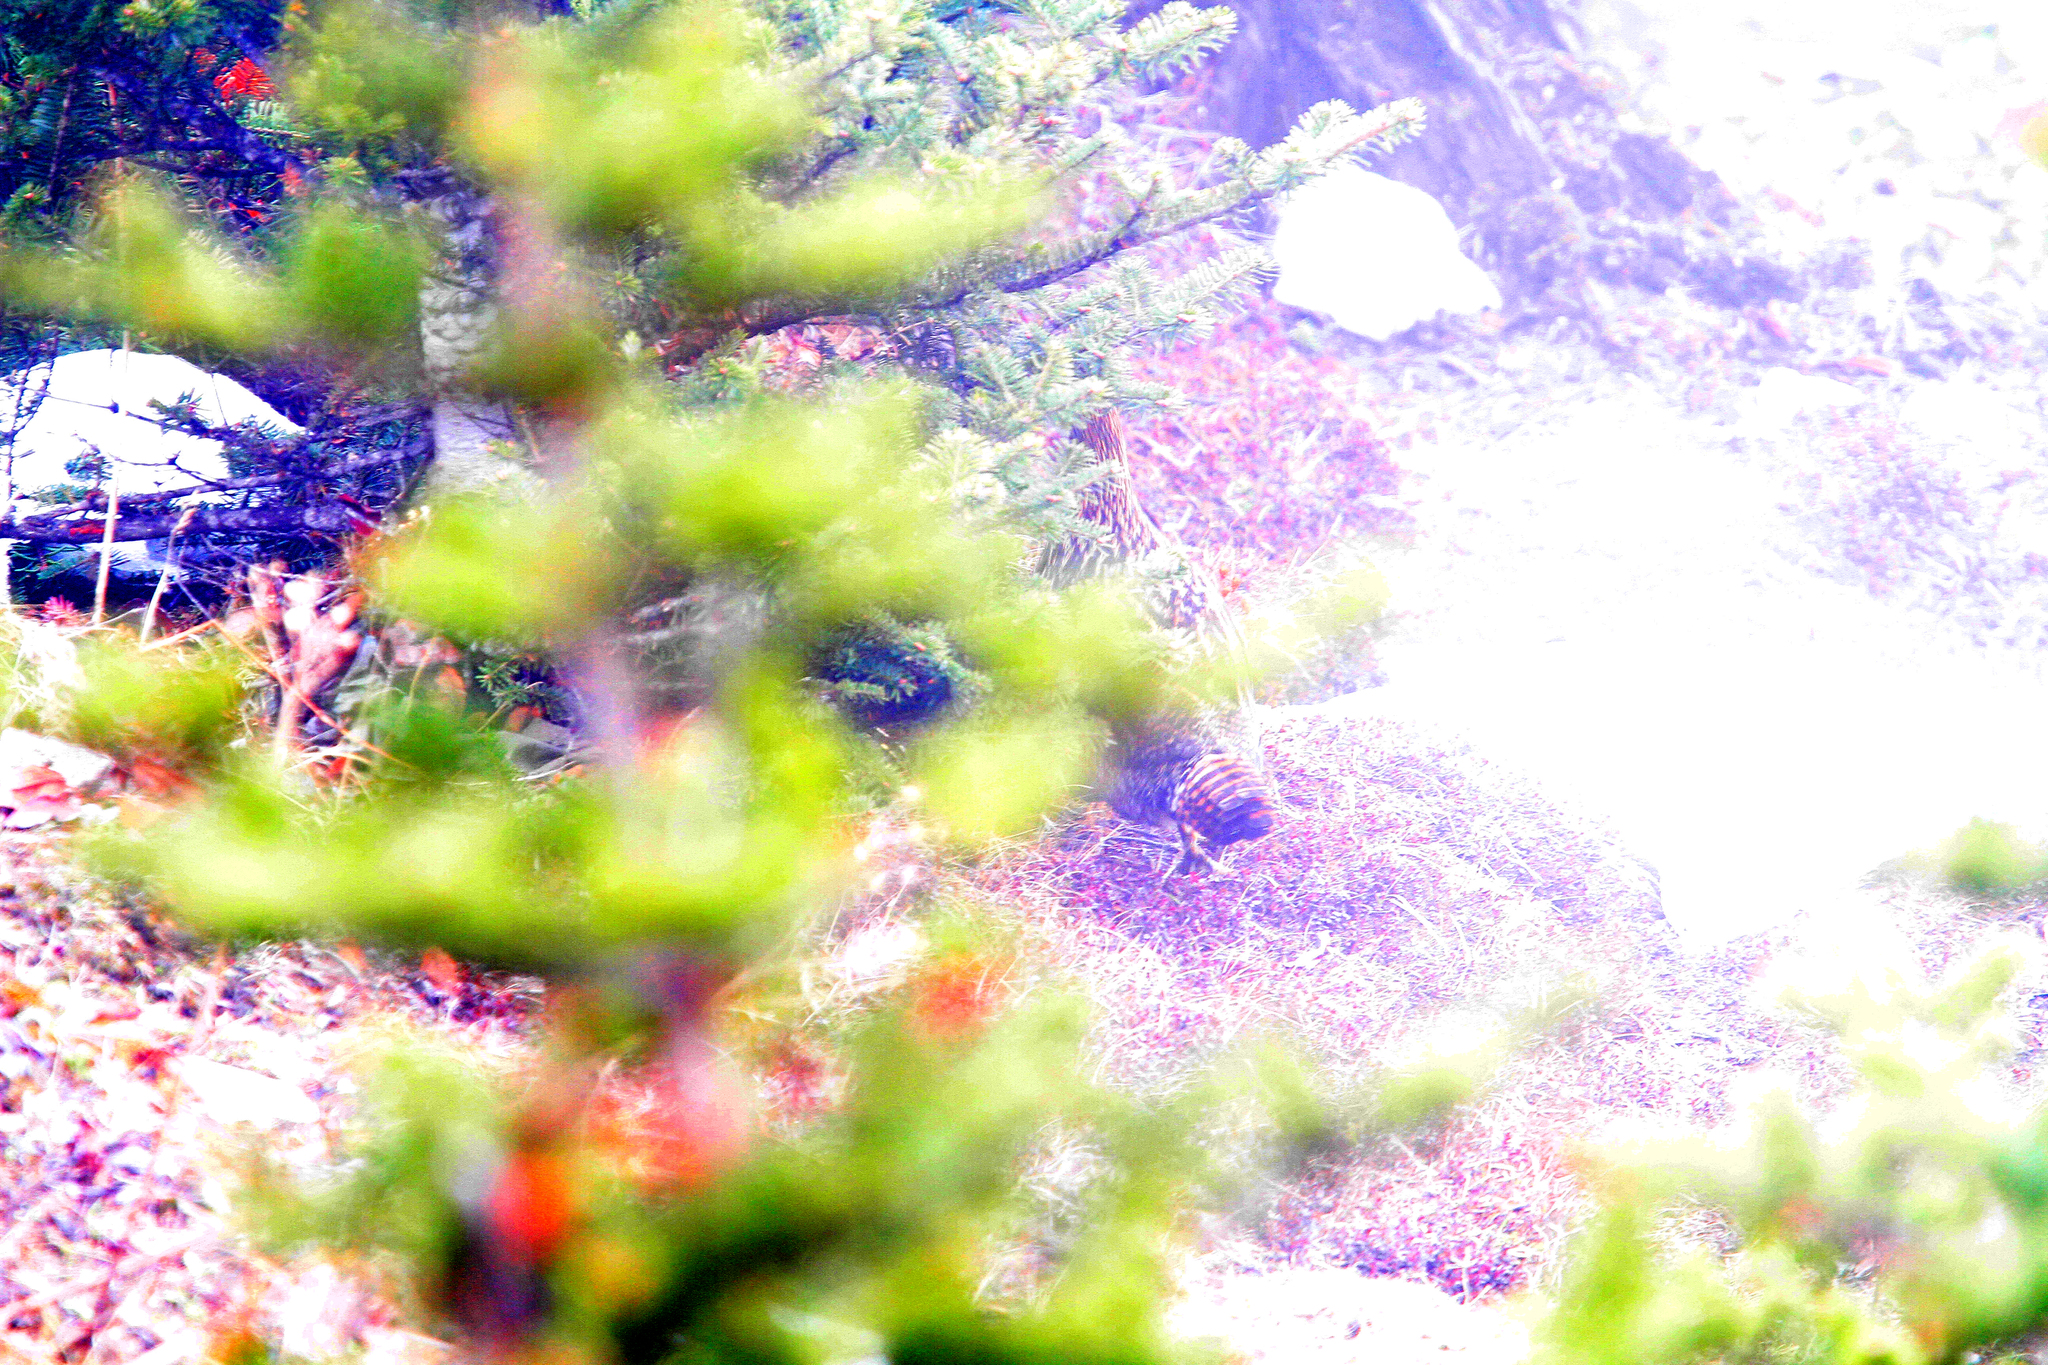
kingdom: Animalia
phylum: Chordata
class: Aves
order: Galliformes
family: Phasianidae
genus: Lophophorus
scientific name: Lophophorus impejanus
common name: Himalayan monal
